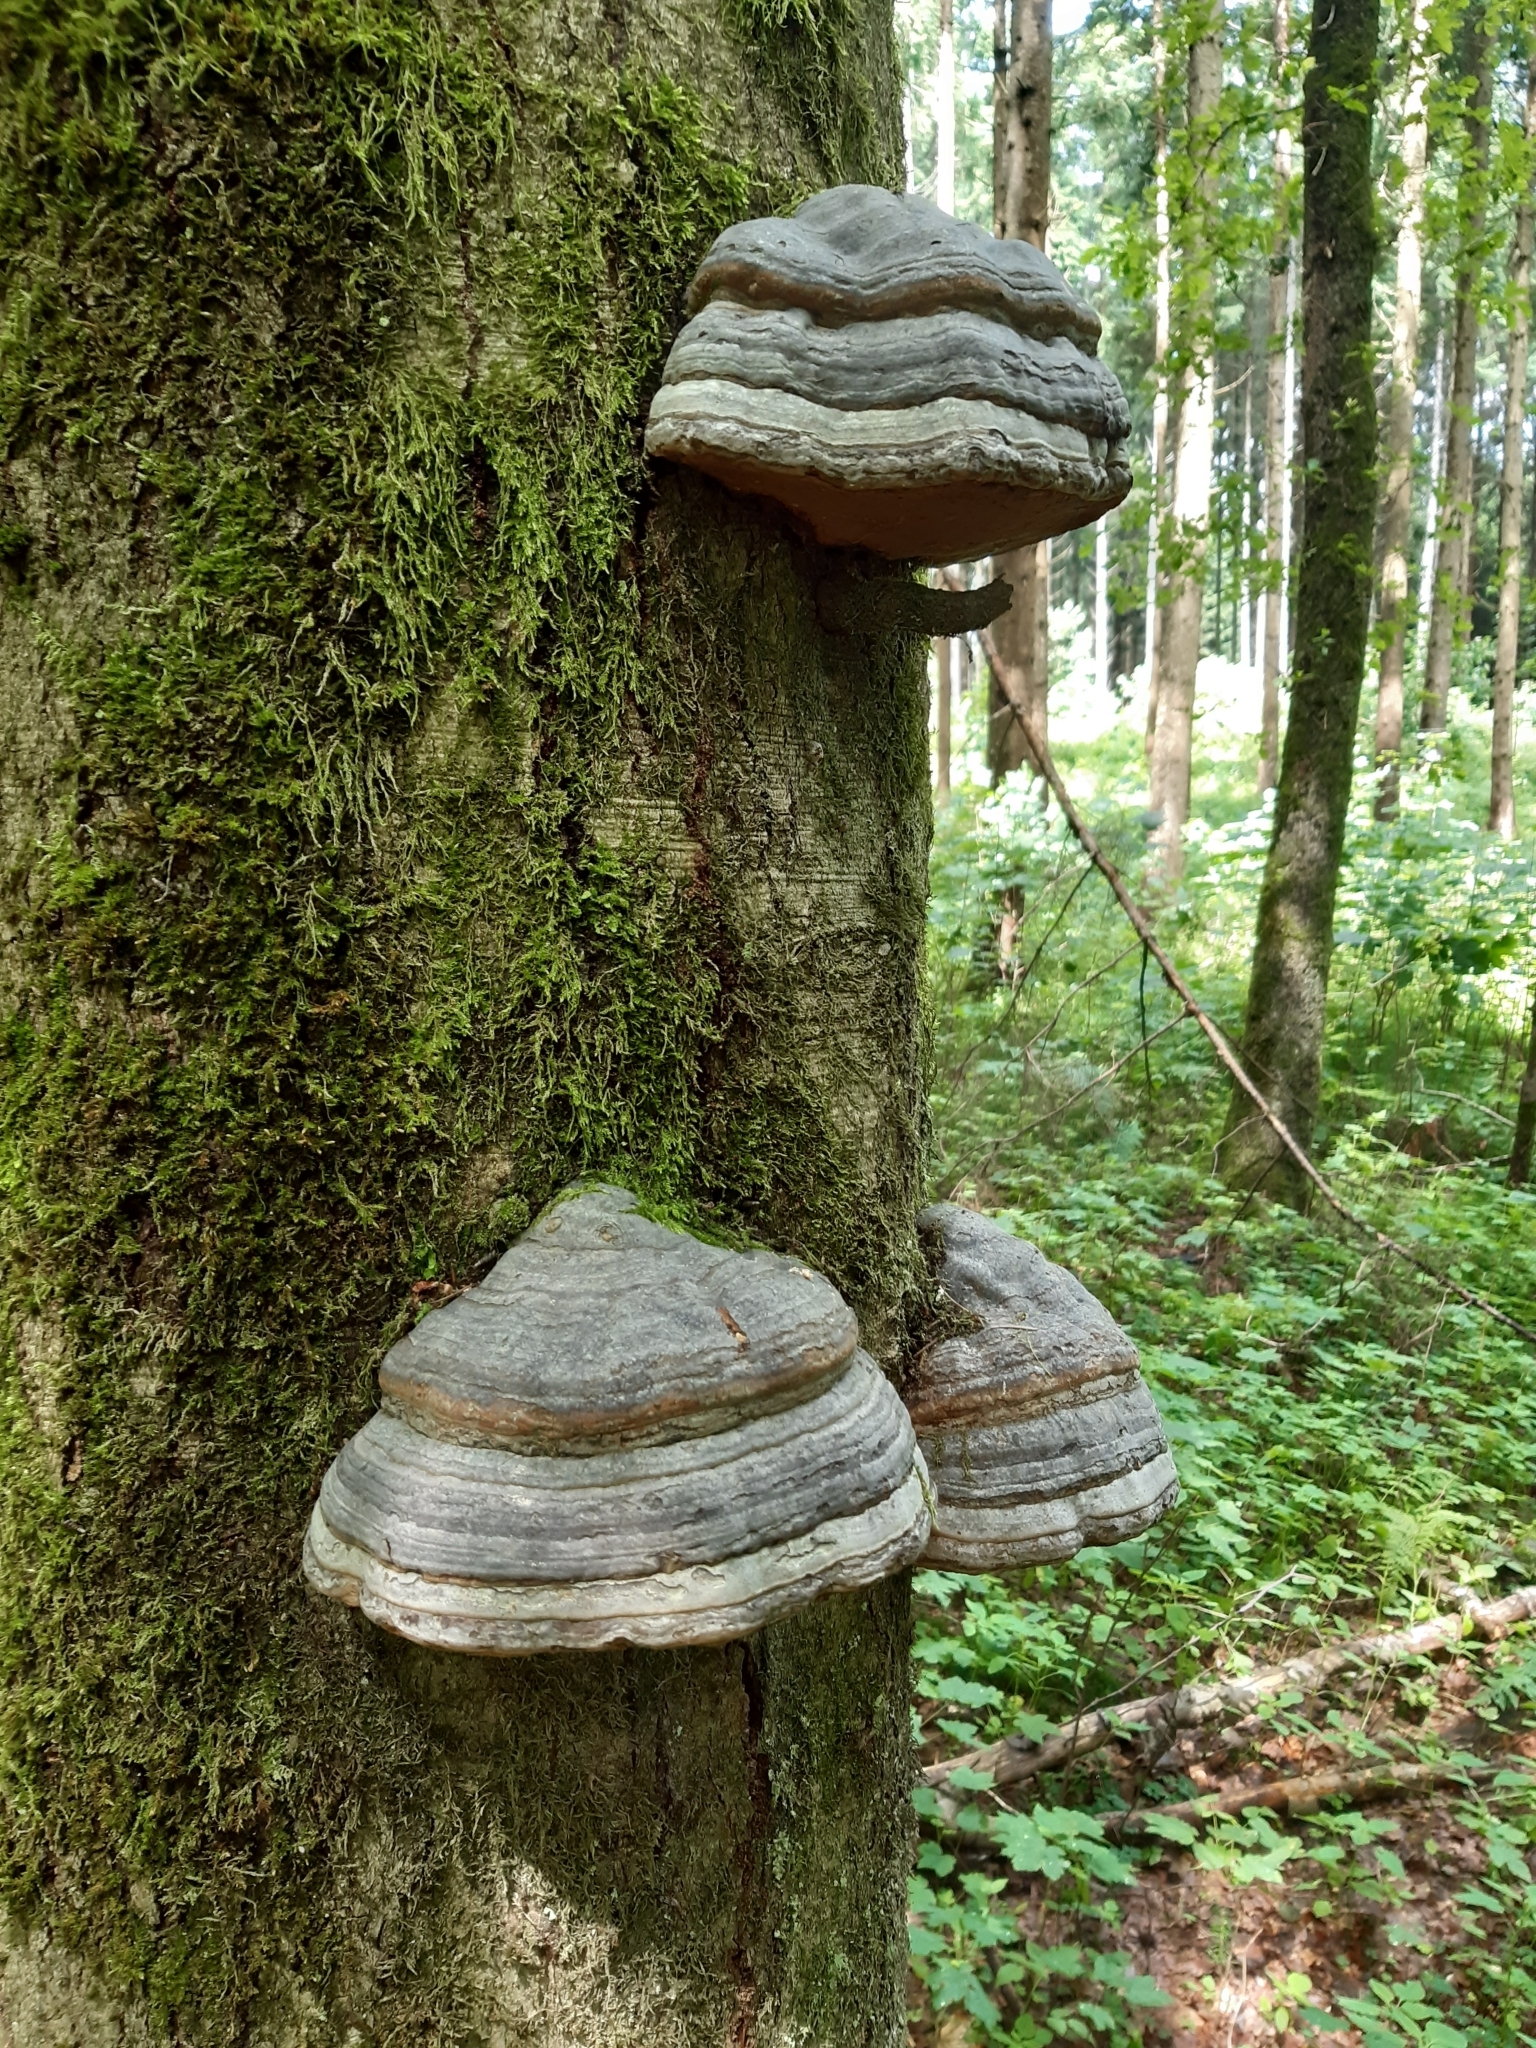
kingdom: Fungi
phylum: Basidiomycota
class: Agaricomycetes
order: Polyporales
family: Polyporaceae
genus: Fomes
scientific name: Fomes fomentarius
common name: Hoof fungus
